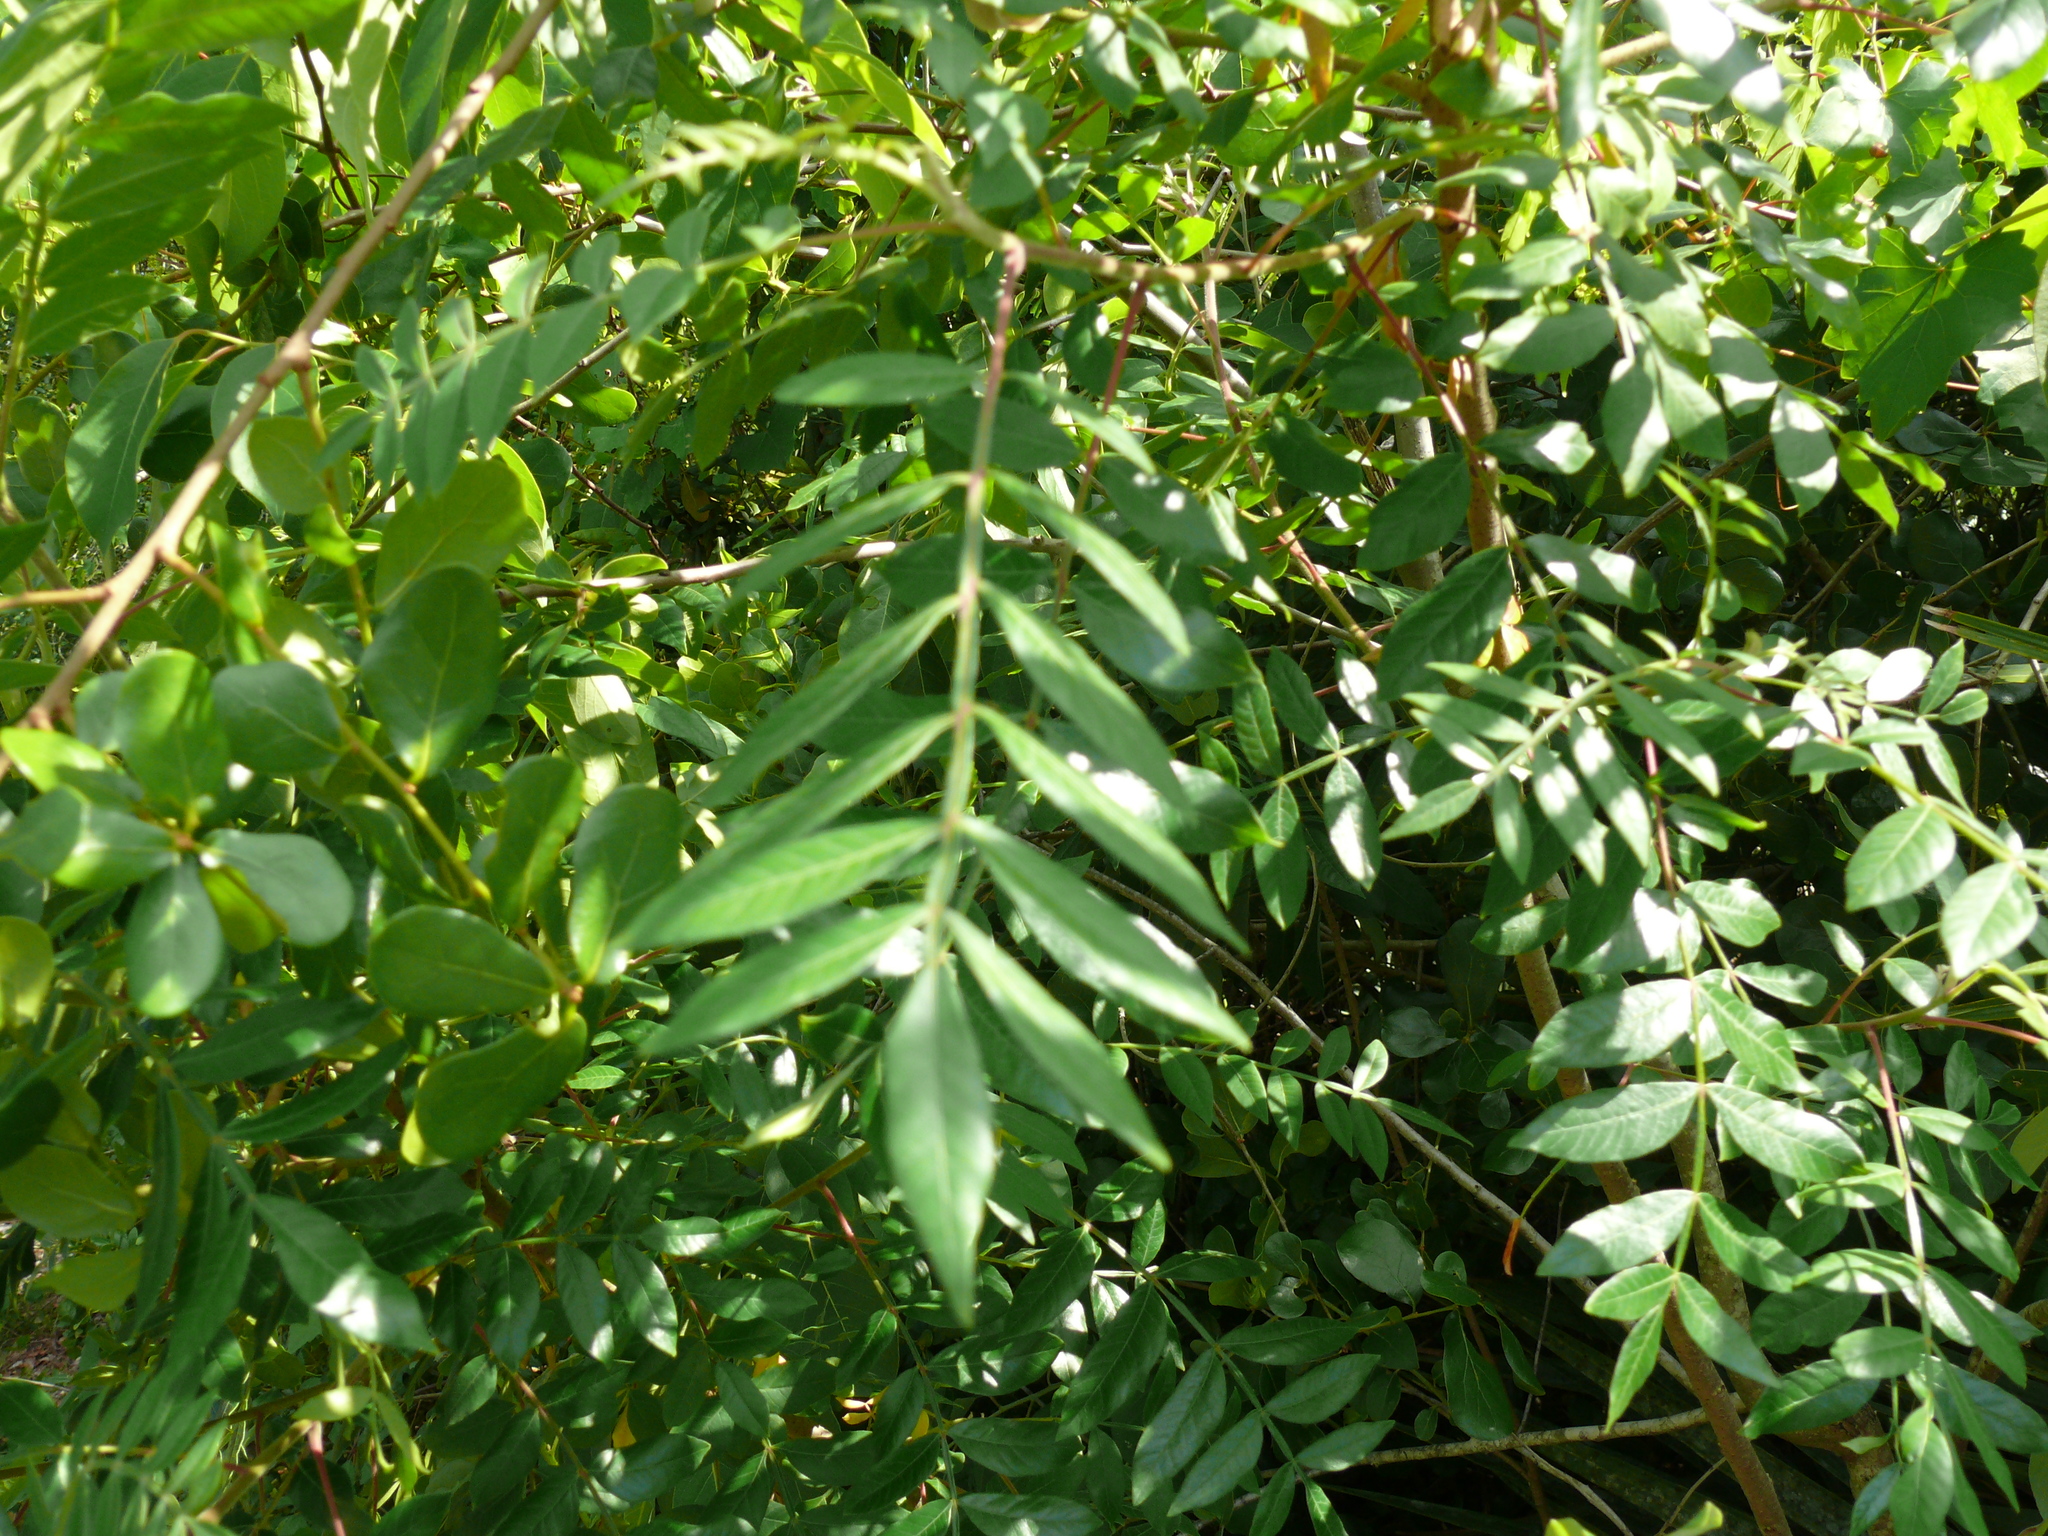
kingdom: Plantae
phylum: Tracheophyta
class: Magnoliopsida
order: Sapindales
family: Anacardiaceae
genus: Rhus
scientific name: Rhus copallina
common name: Shining sumac
